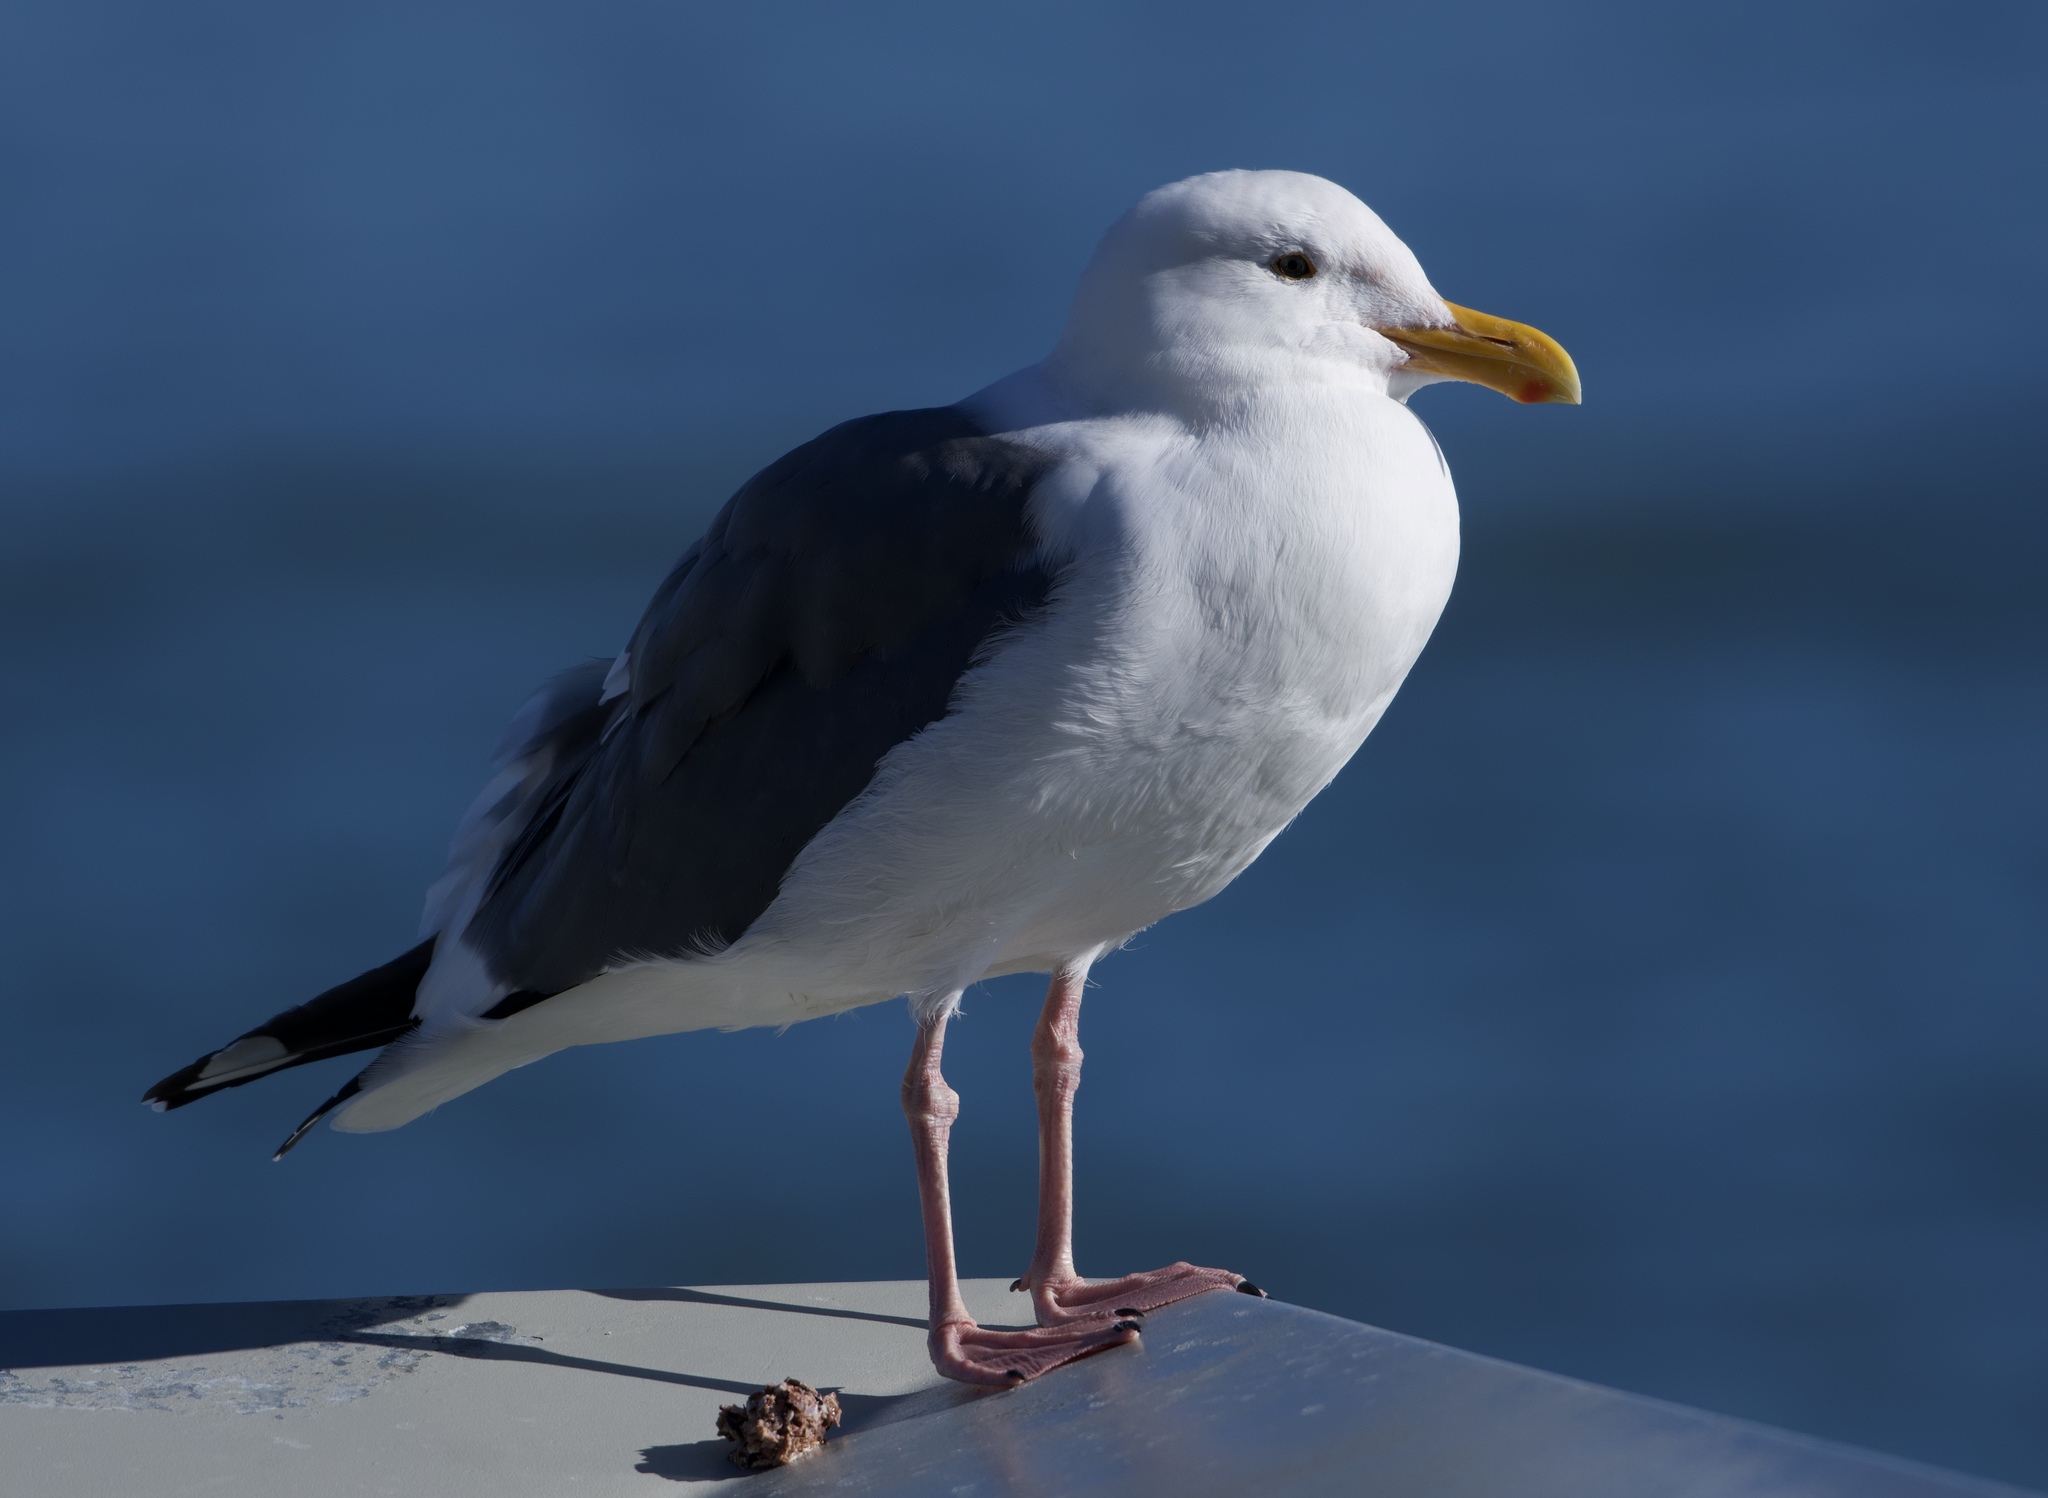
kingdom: Animalia
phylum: Chordata
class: Aves
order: Charadriiformes
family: Laridae
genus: Larus
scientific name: Larus occidentalis
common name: Western gull
